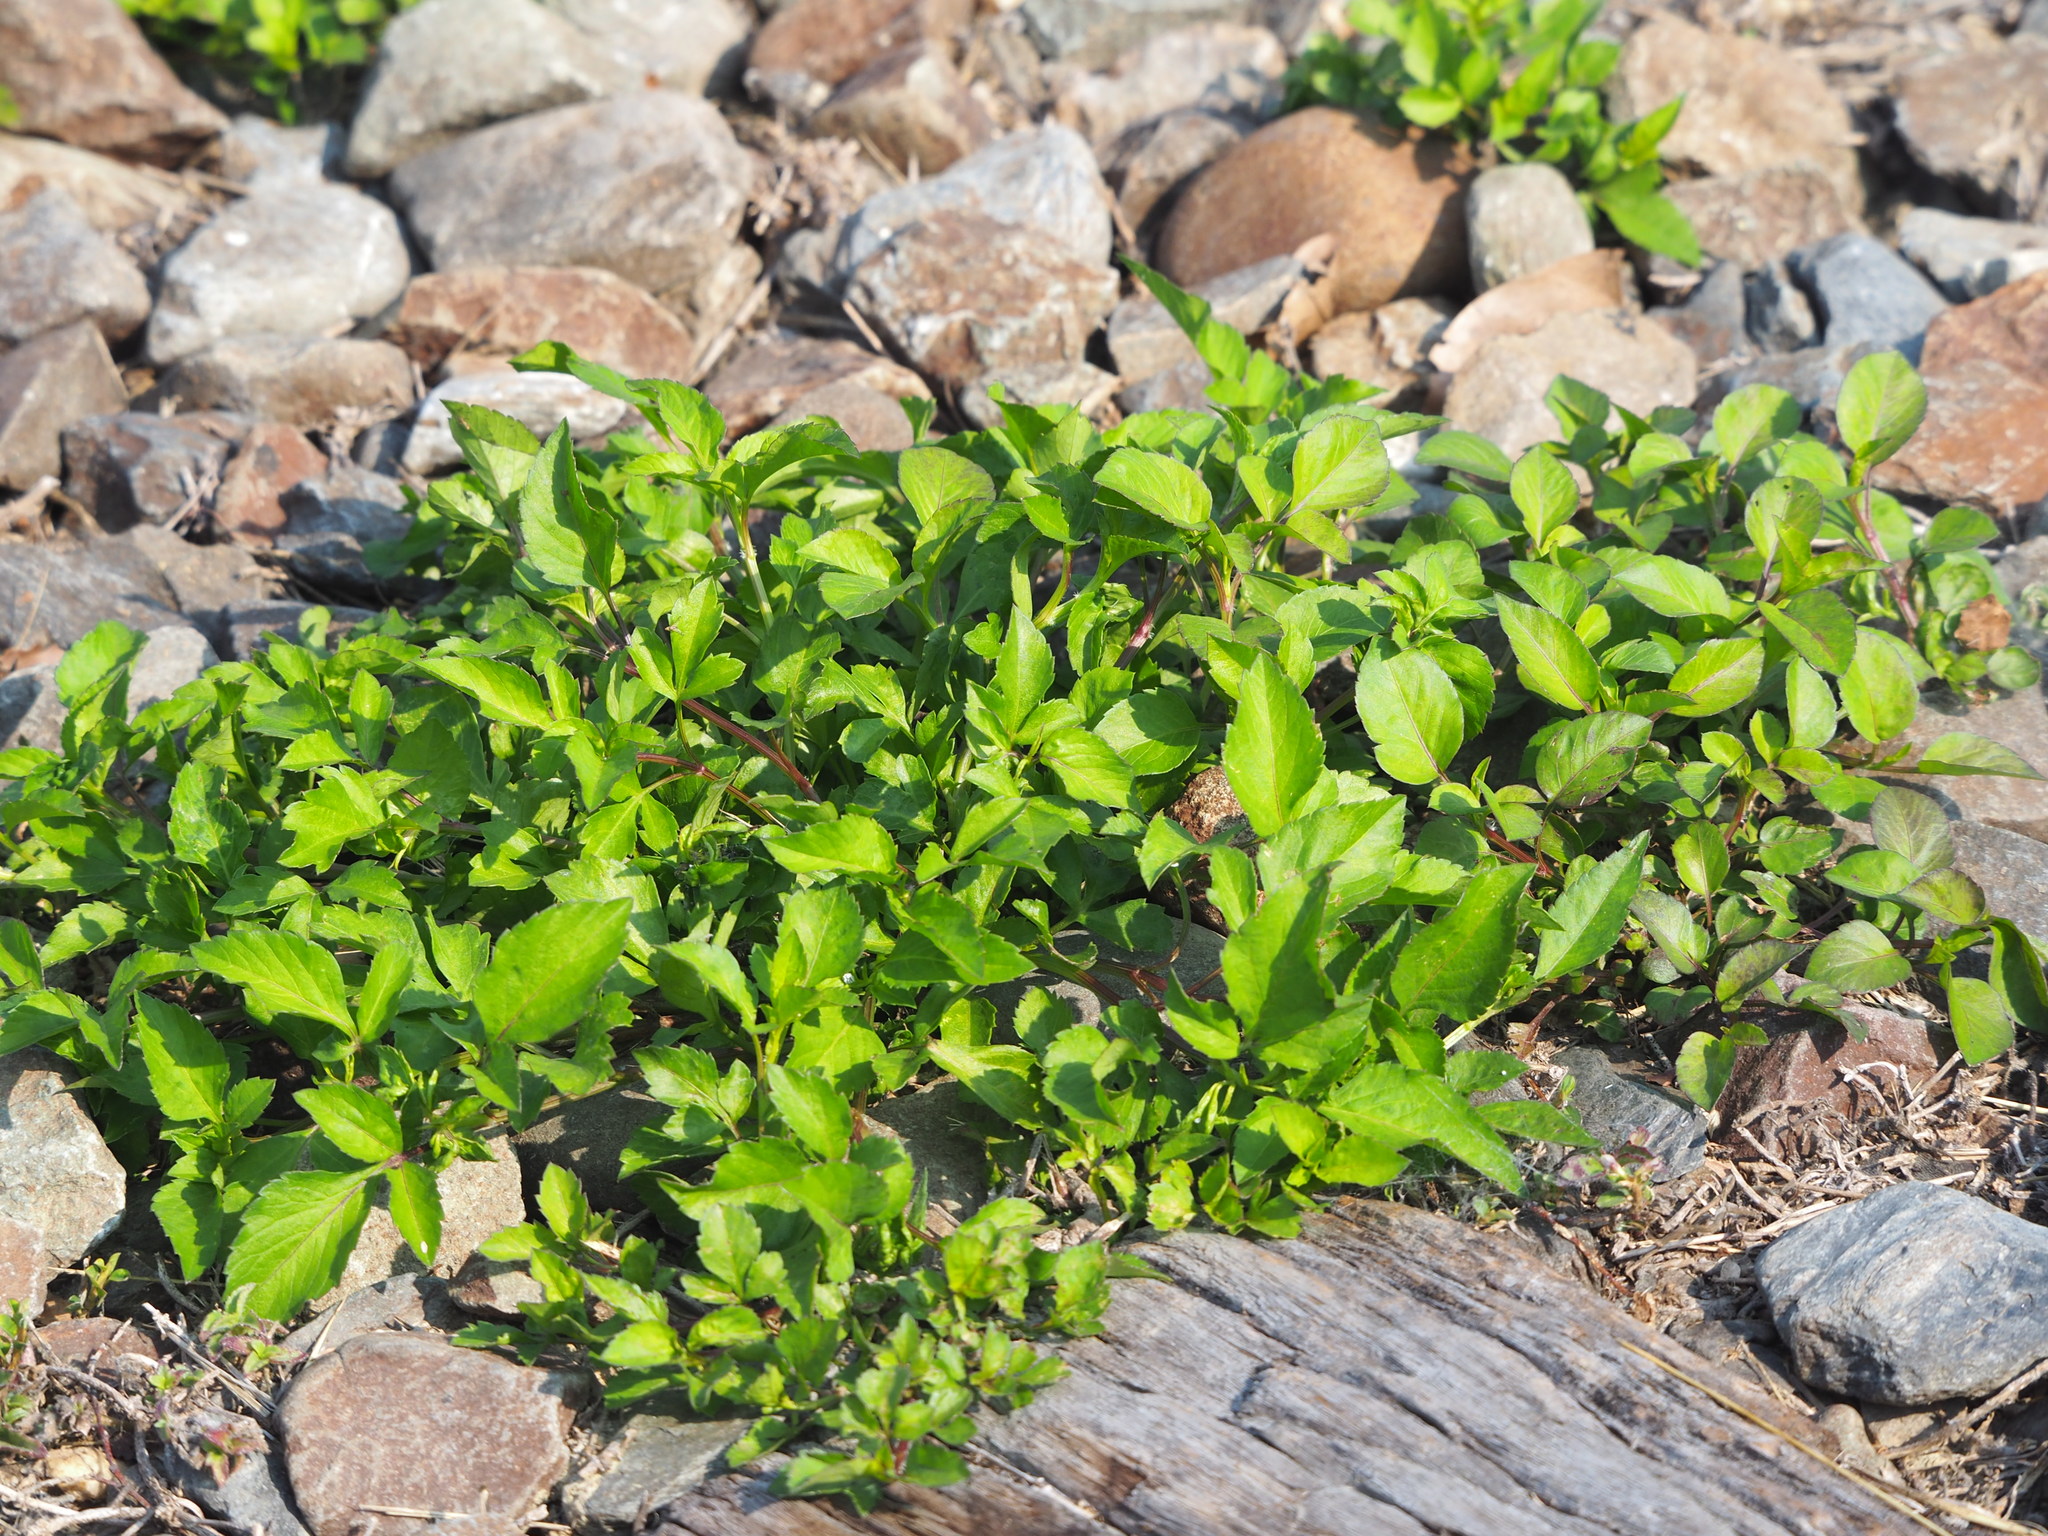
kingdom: Plantae
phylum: Tracheophyta
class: Magnoliopsida
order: Asterales
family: Asteraceae
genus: Bidens
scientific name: Bidens alba
